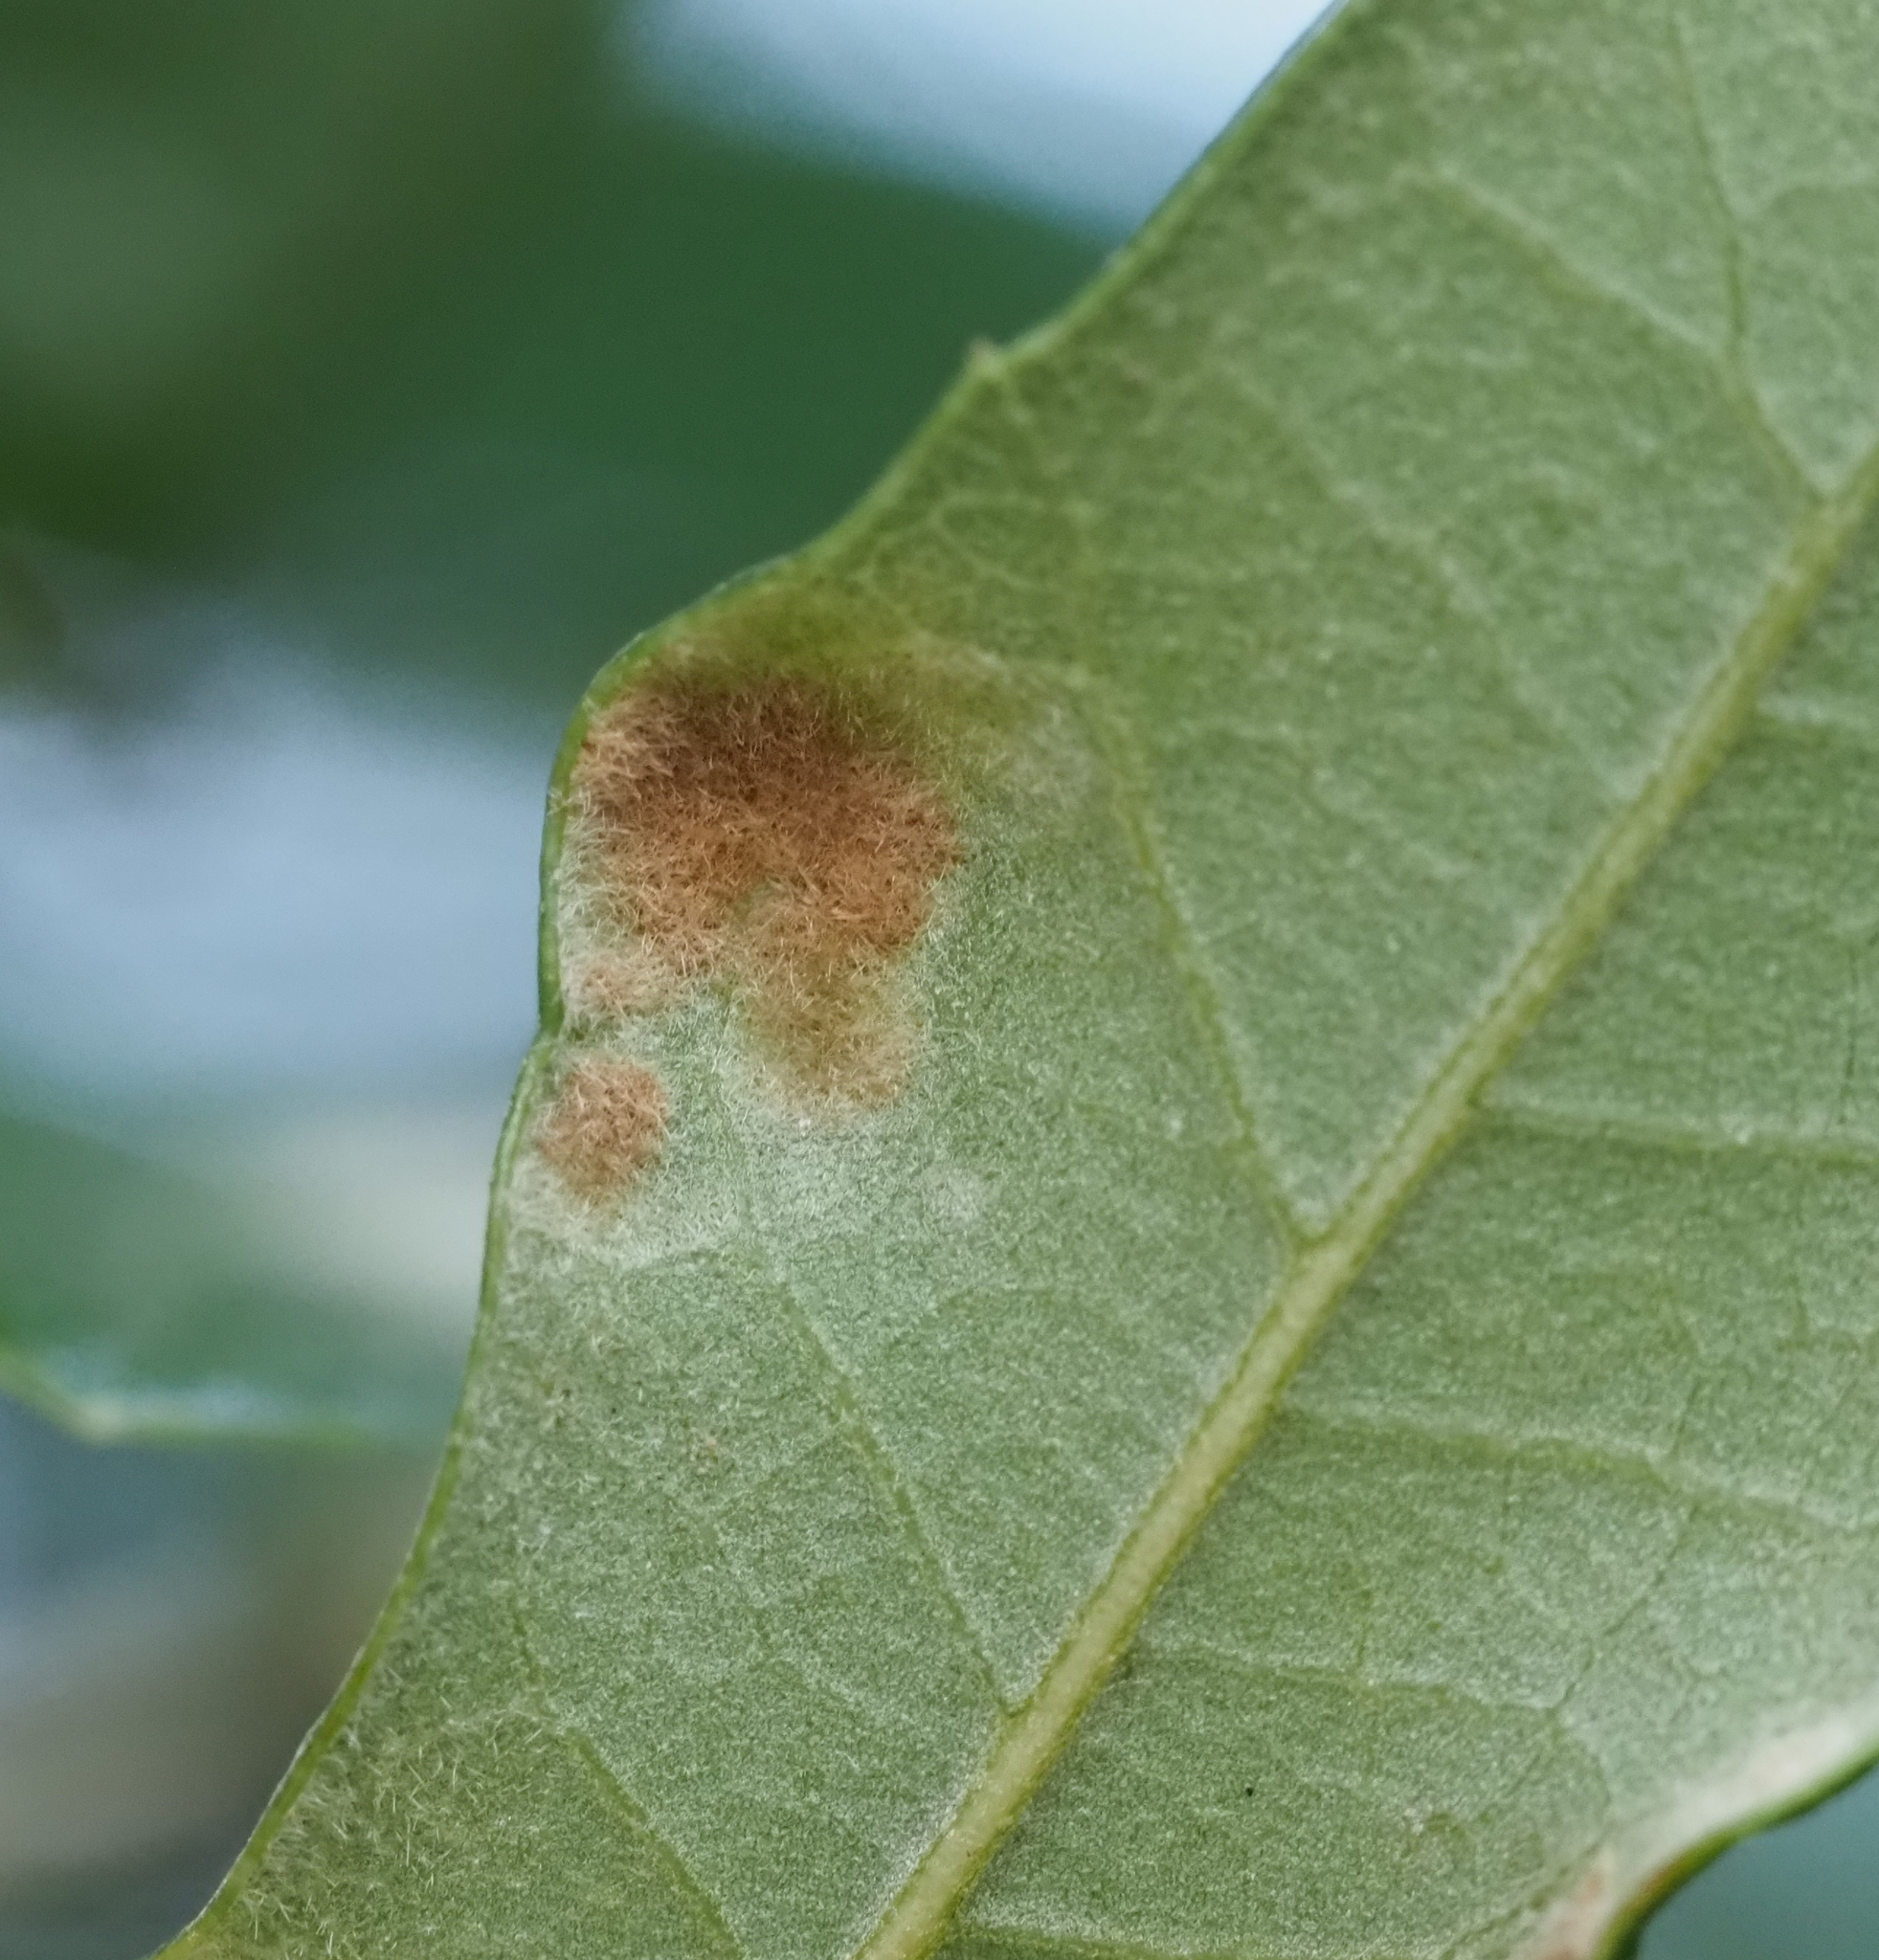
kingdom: Animalia
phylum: Arthropoda
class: Arachnida
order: Trombidiformes
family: Eriophyidae
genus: Aceria
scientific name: Aceria quercina
